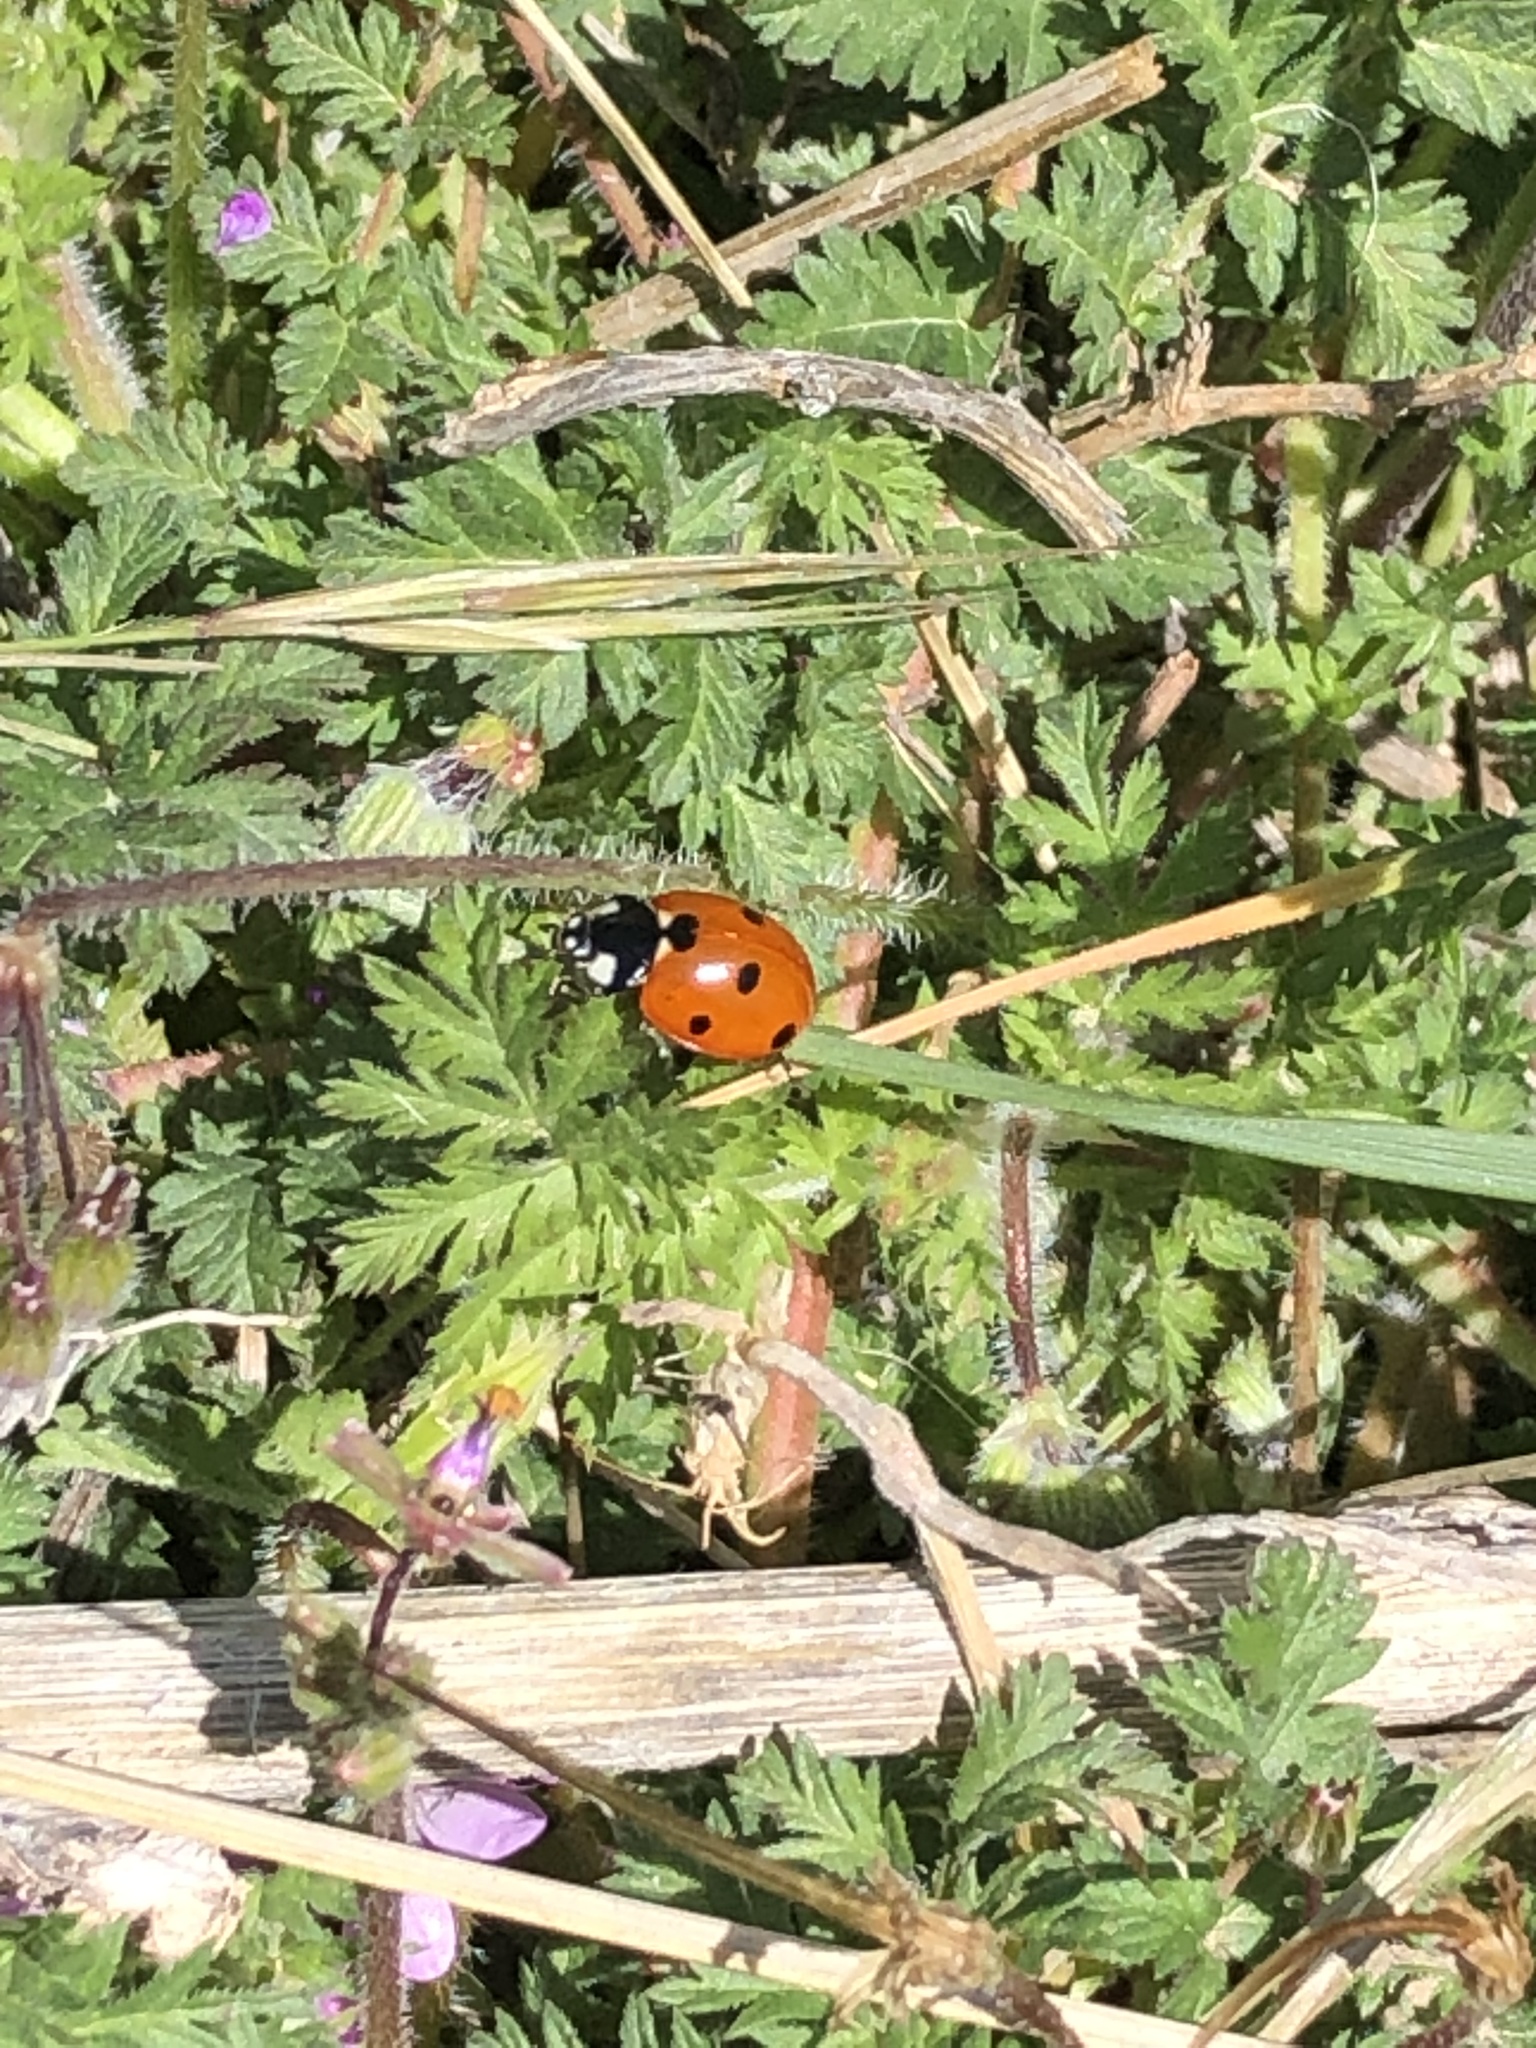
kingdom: Animalia
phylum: Arthropoda
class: Insecta
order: Coleoptera
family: Coccinellidae
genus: Coccinella
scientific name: Coccinella septempunctata
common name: Sevenspotted lady beetle
